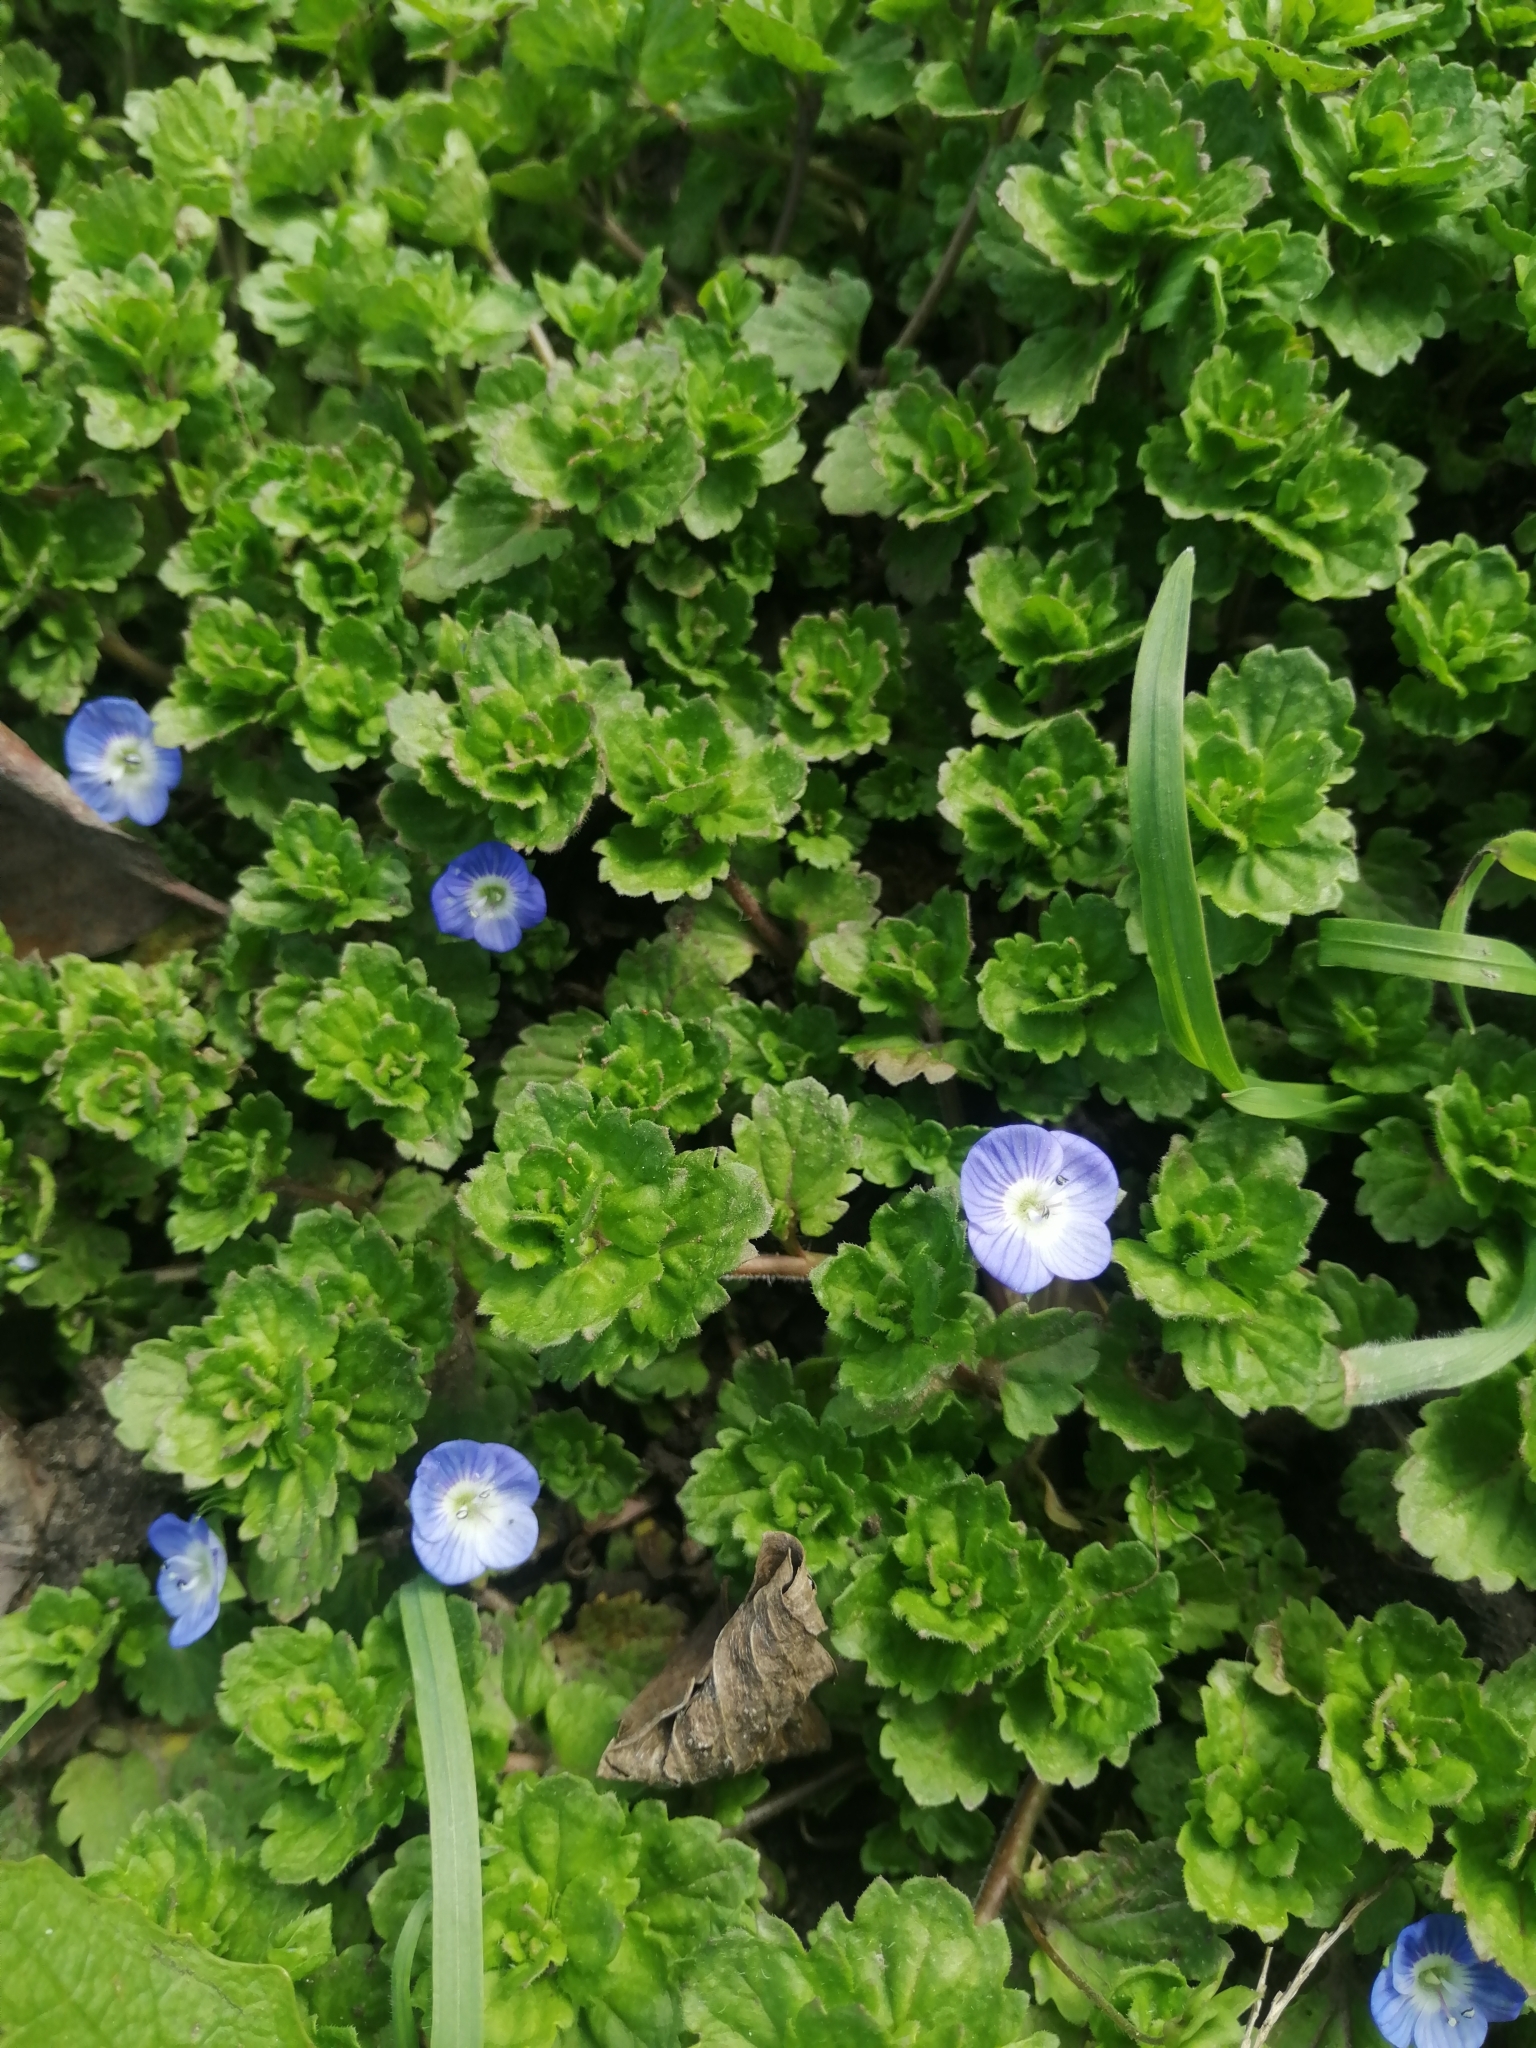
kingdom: Plantae
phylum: Tracheophyta
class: Magnoliopsida
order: Lamiales
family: Plantaginaceae
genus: Veronica
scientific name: Veronica persica
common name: Common field-speedwell
